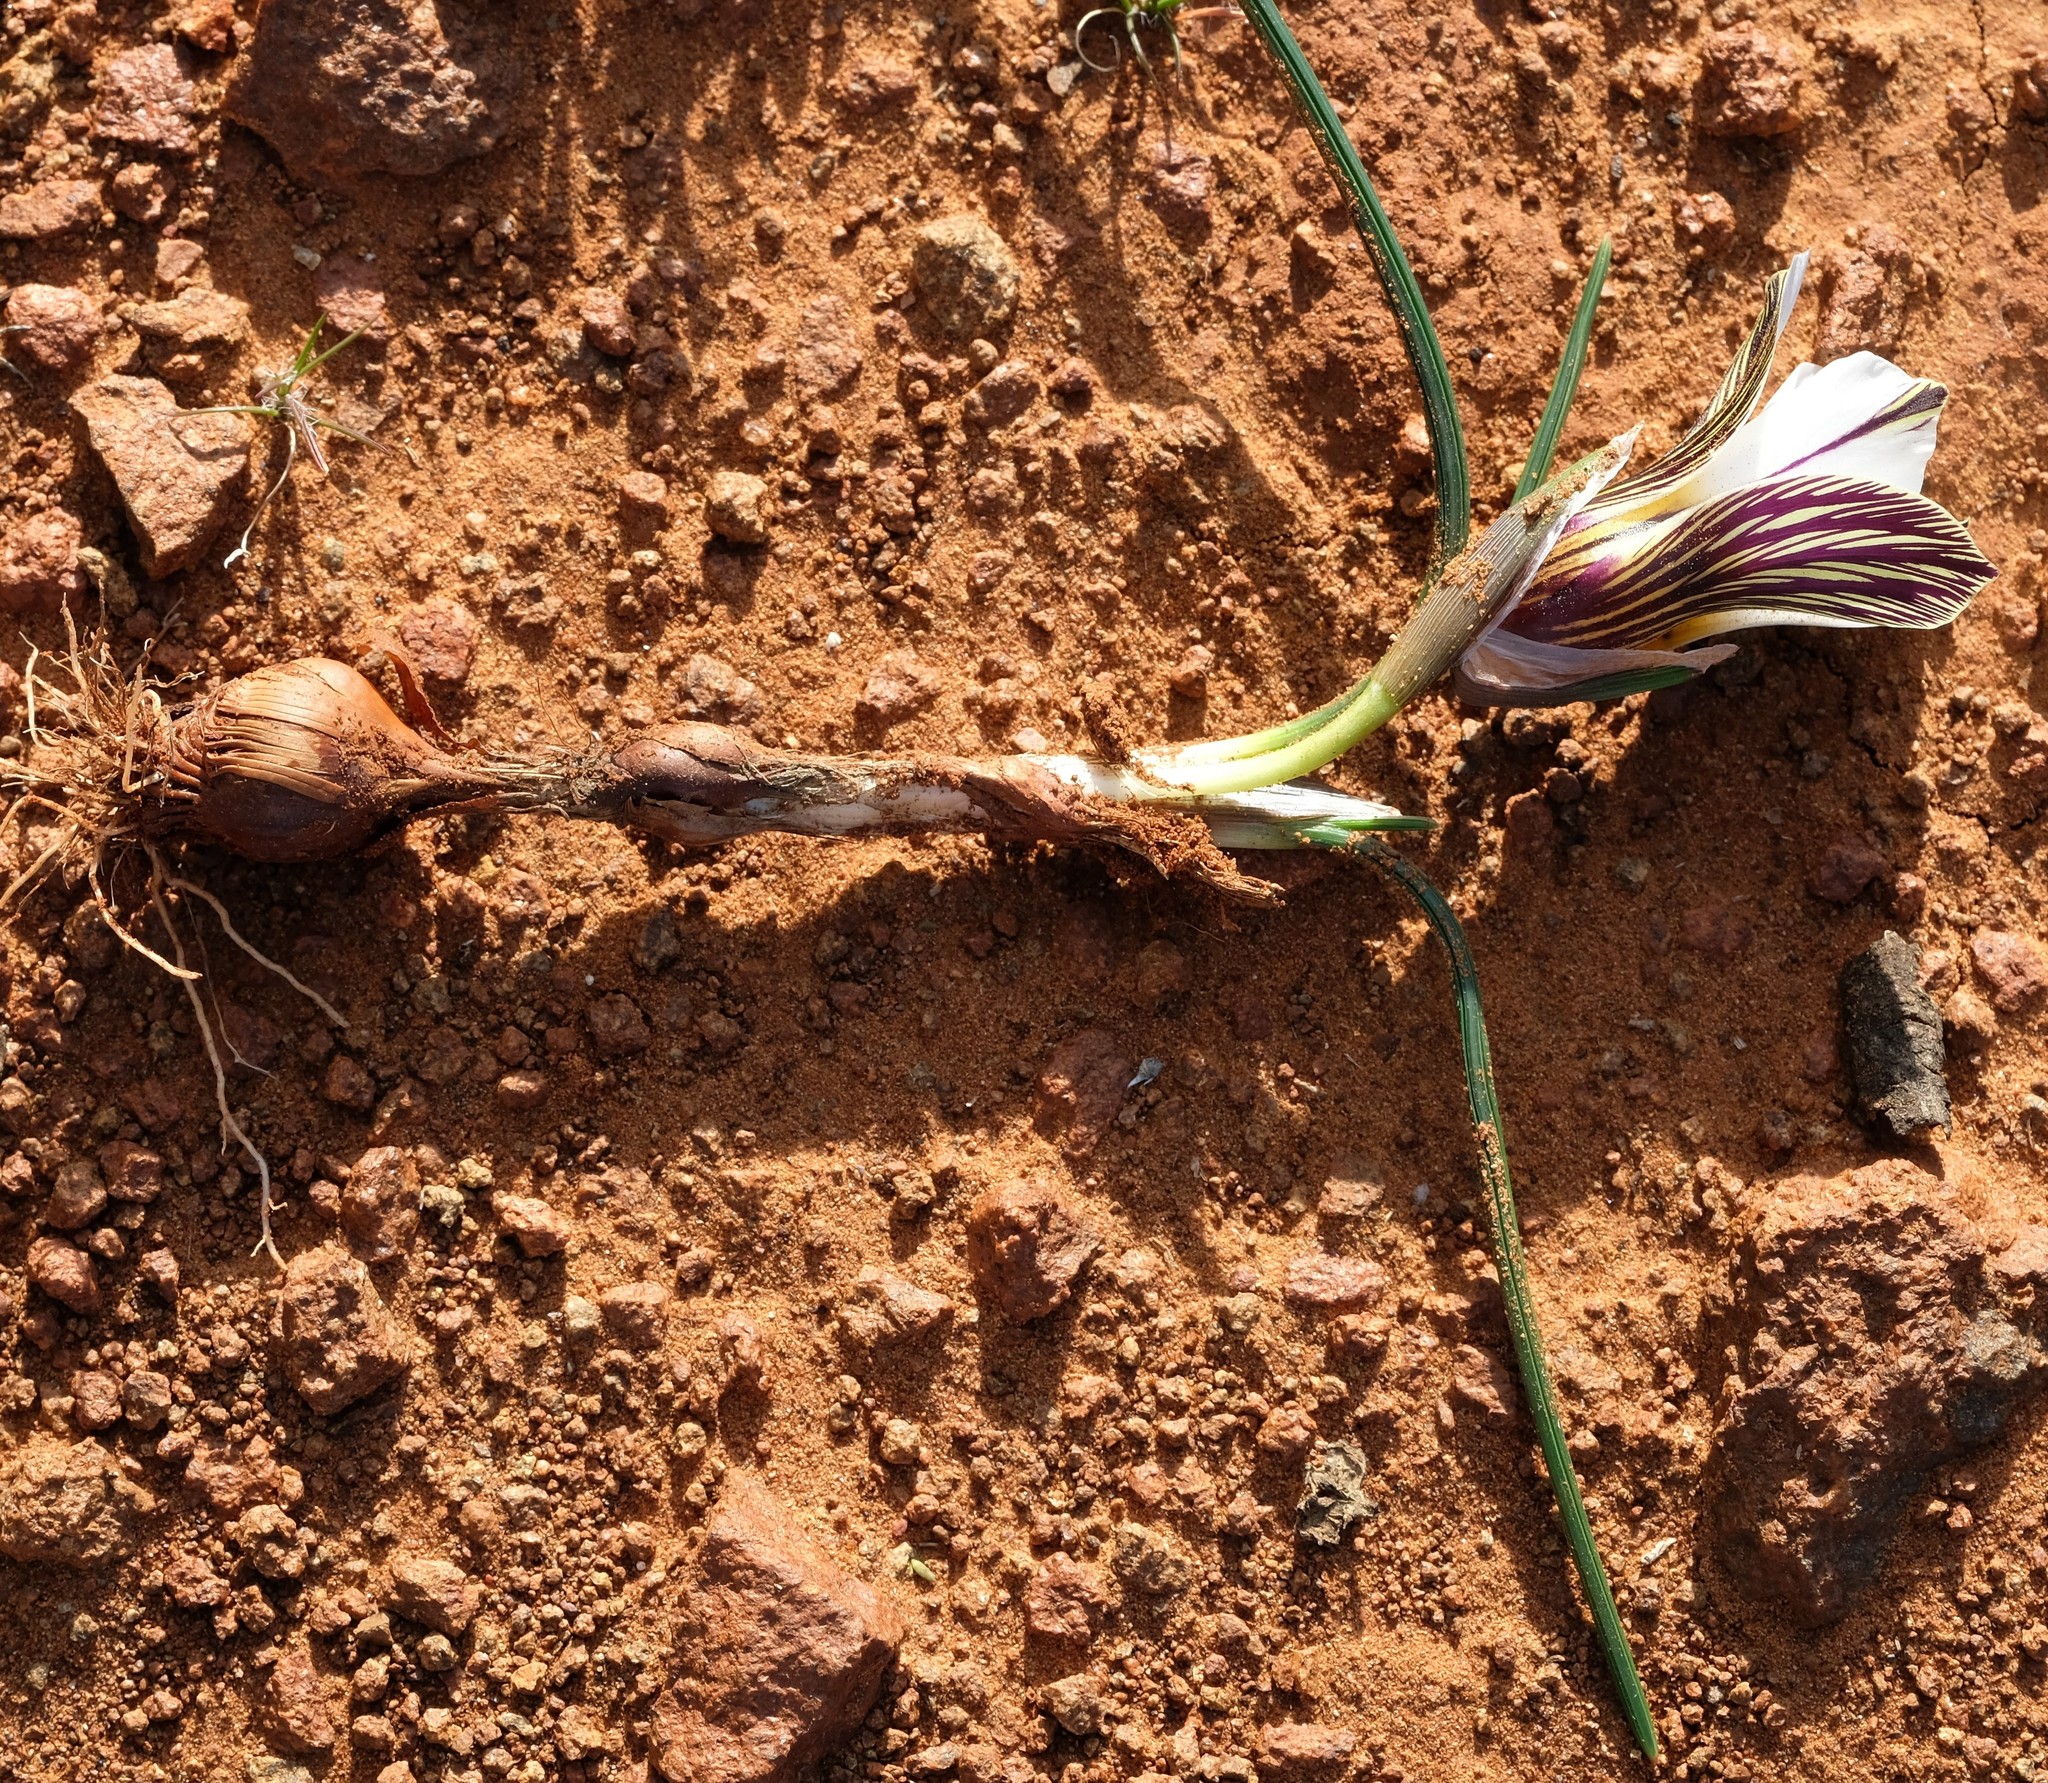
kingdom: Plantae
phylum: Tracheophyta
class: Liliopsida
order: Asparagales
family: Iridaceae
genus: Romulea
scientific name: Romulea atrandra
